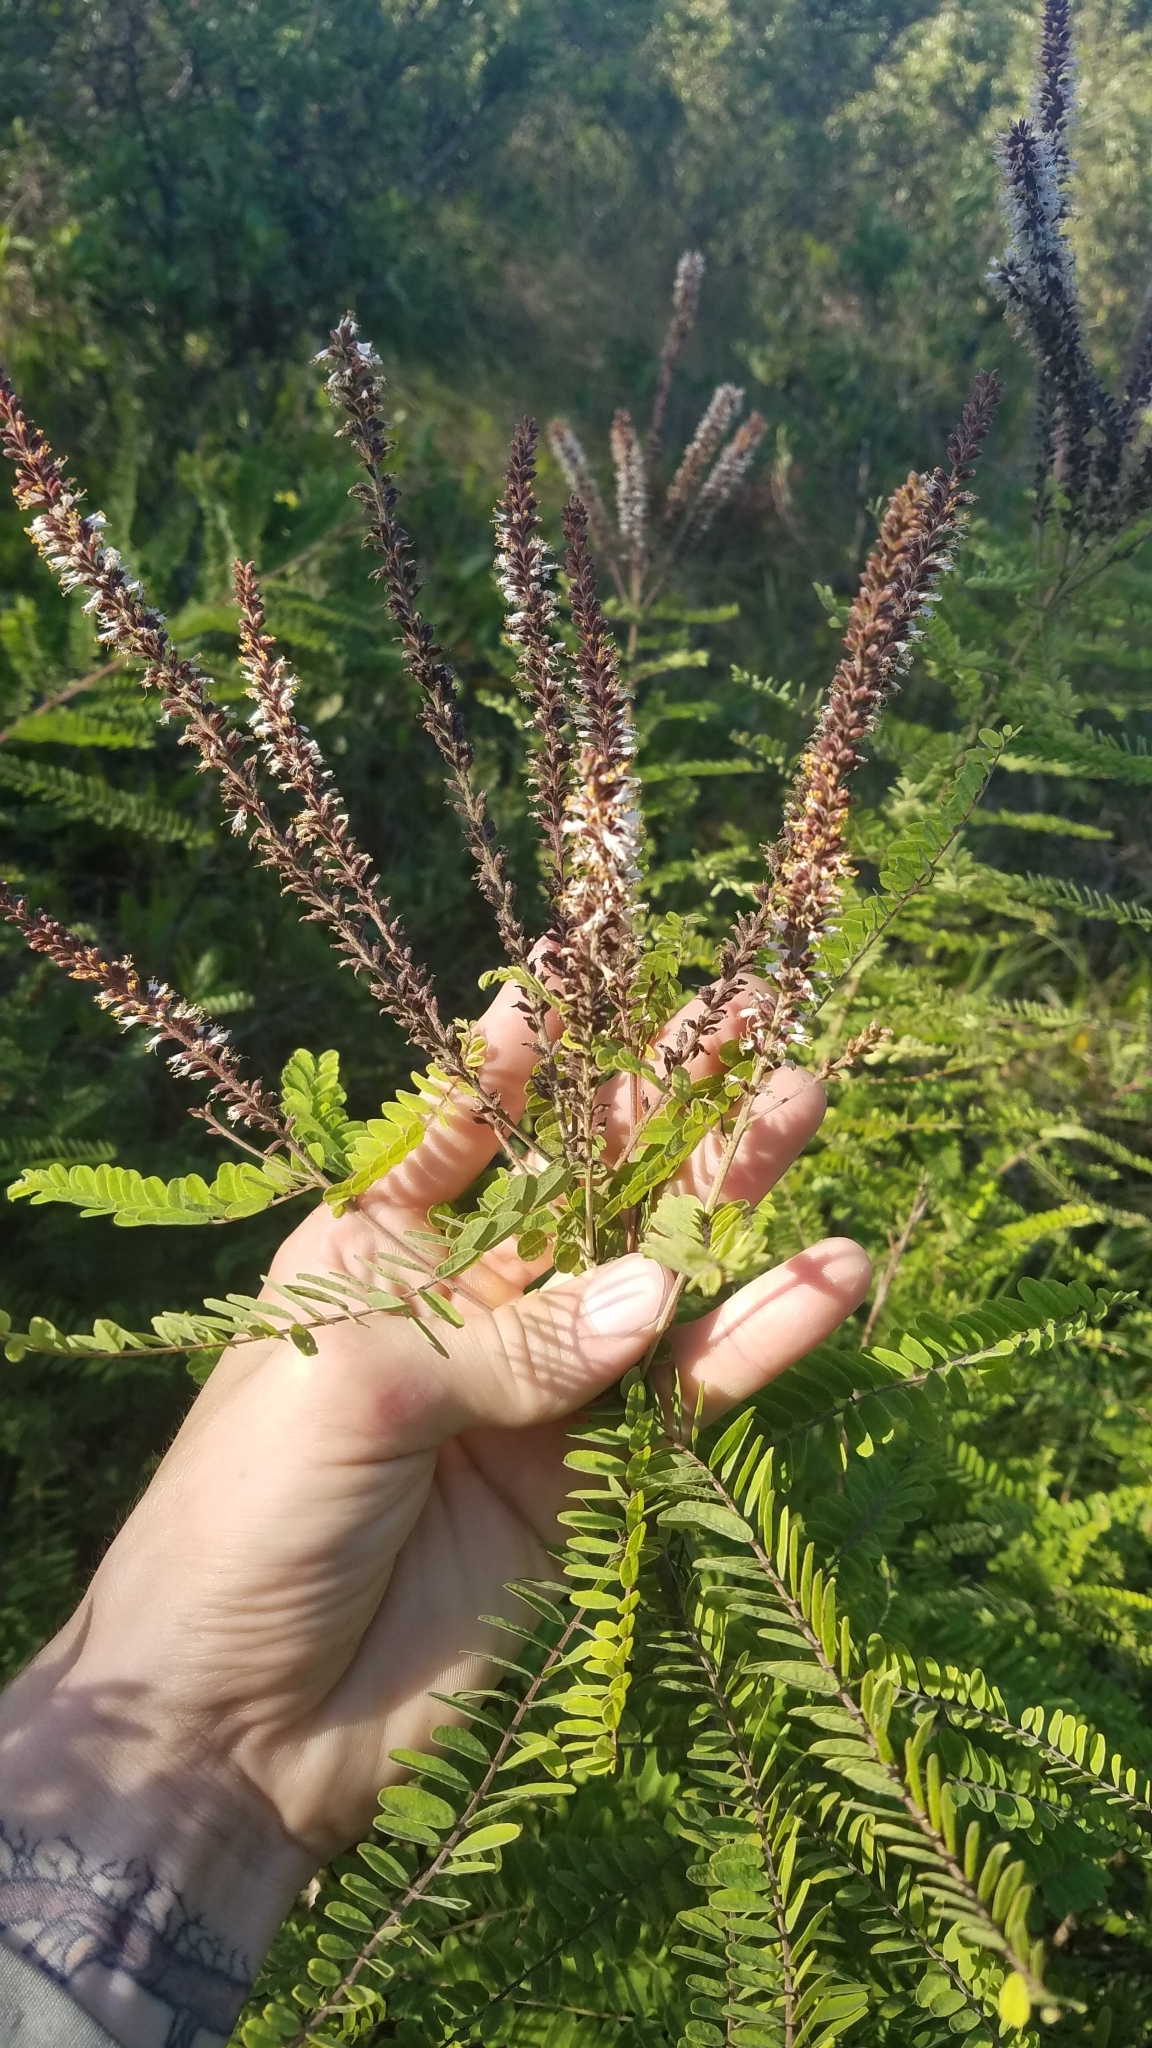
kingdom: Plantae
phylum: Tracheophyta
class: Magnoliopsida
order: Fabales
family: Fabaceae
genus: Amorpha
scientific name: Amorpha herbacea
